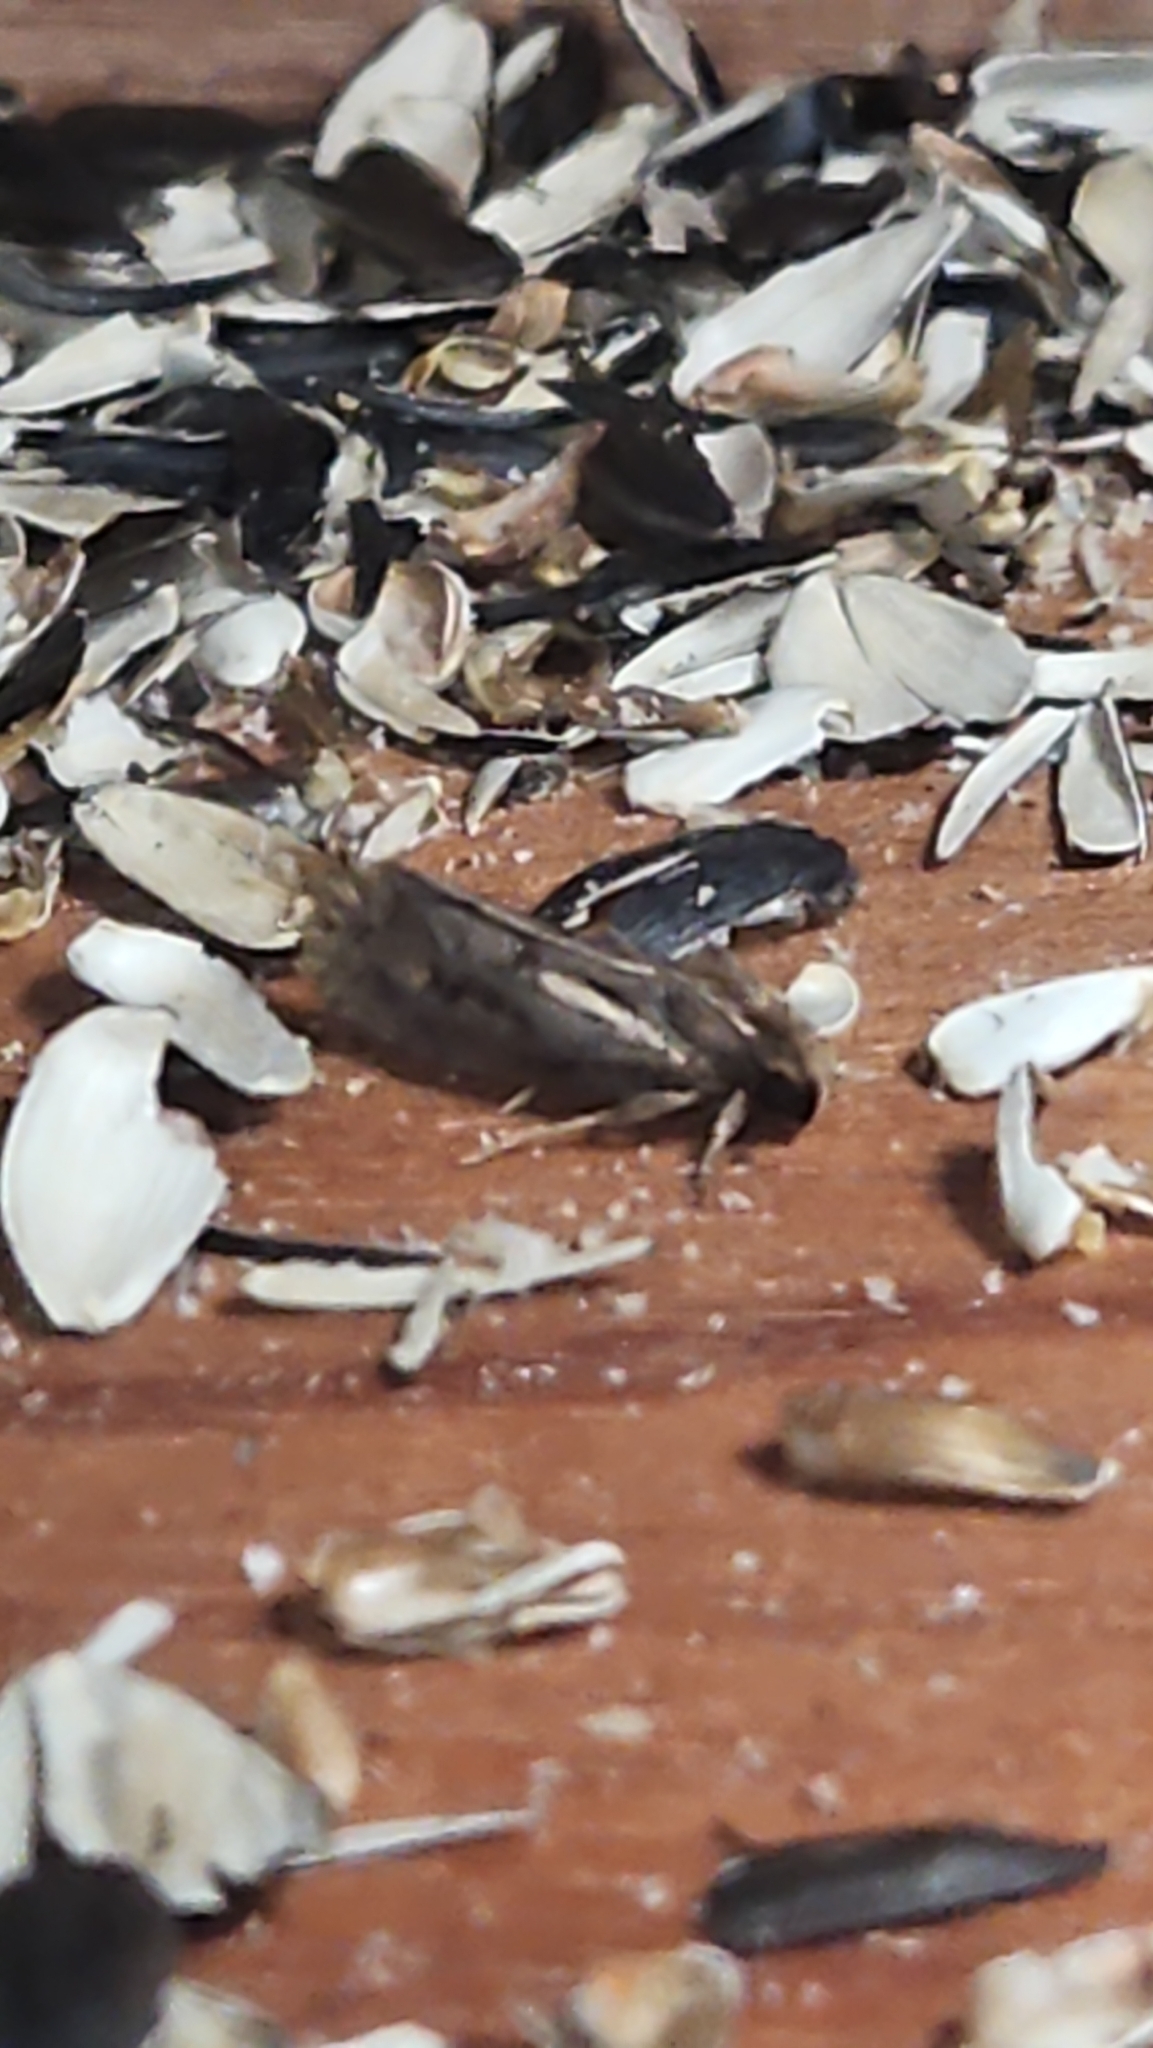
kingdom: Animalia
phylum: Arthropoda
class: Insecta
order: Lepidoptera
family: Tineidae
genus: Acrolophus
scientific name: Acrolophus popeanella
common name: Clemens' grass tubeworm moth
